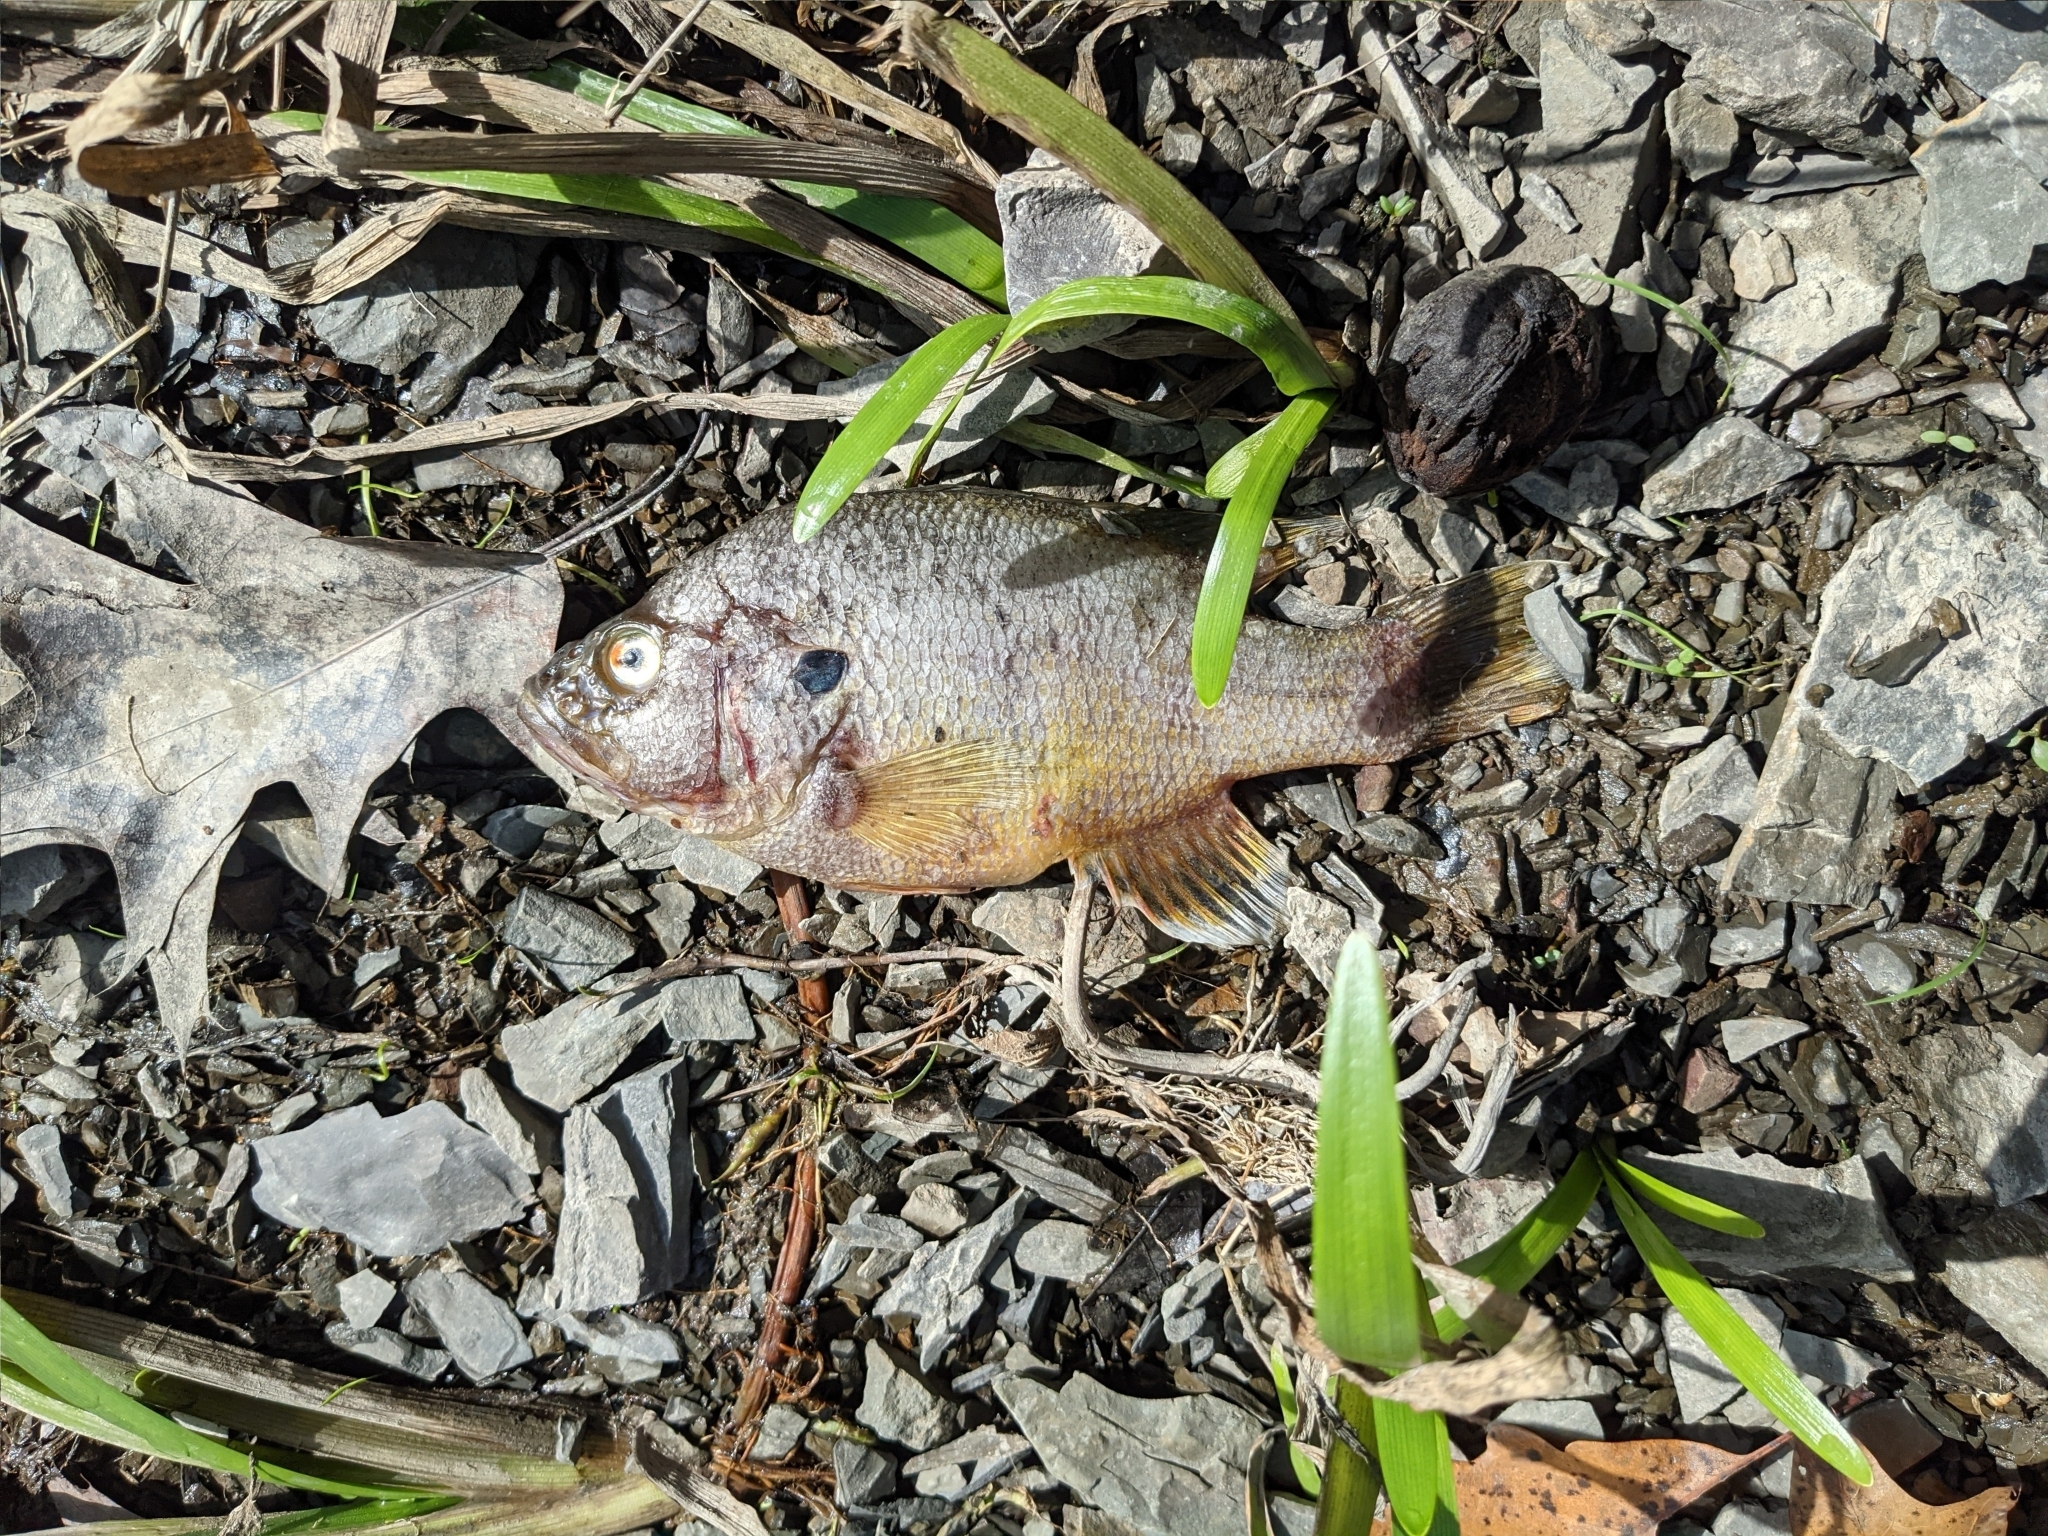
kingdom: Animalia
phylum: Chordata
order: Perciformes
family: Centrarchidae
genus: Lepomis
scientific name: Lepomis cyanellus
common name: Green sunfish
